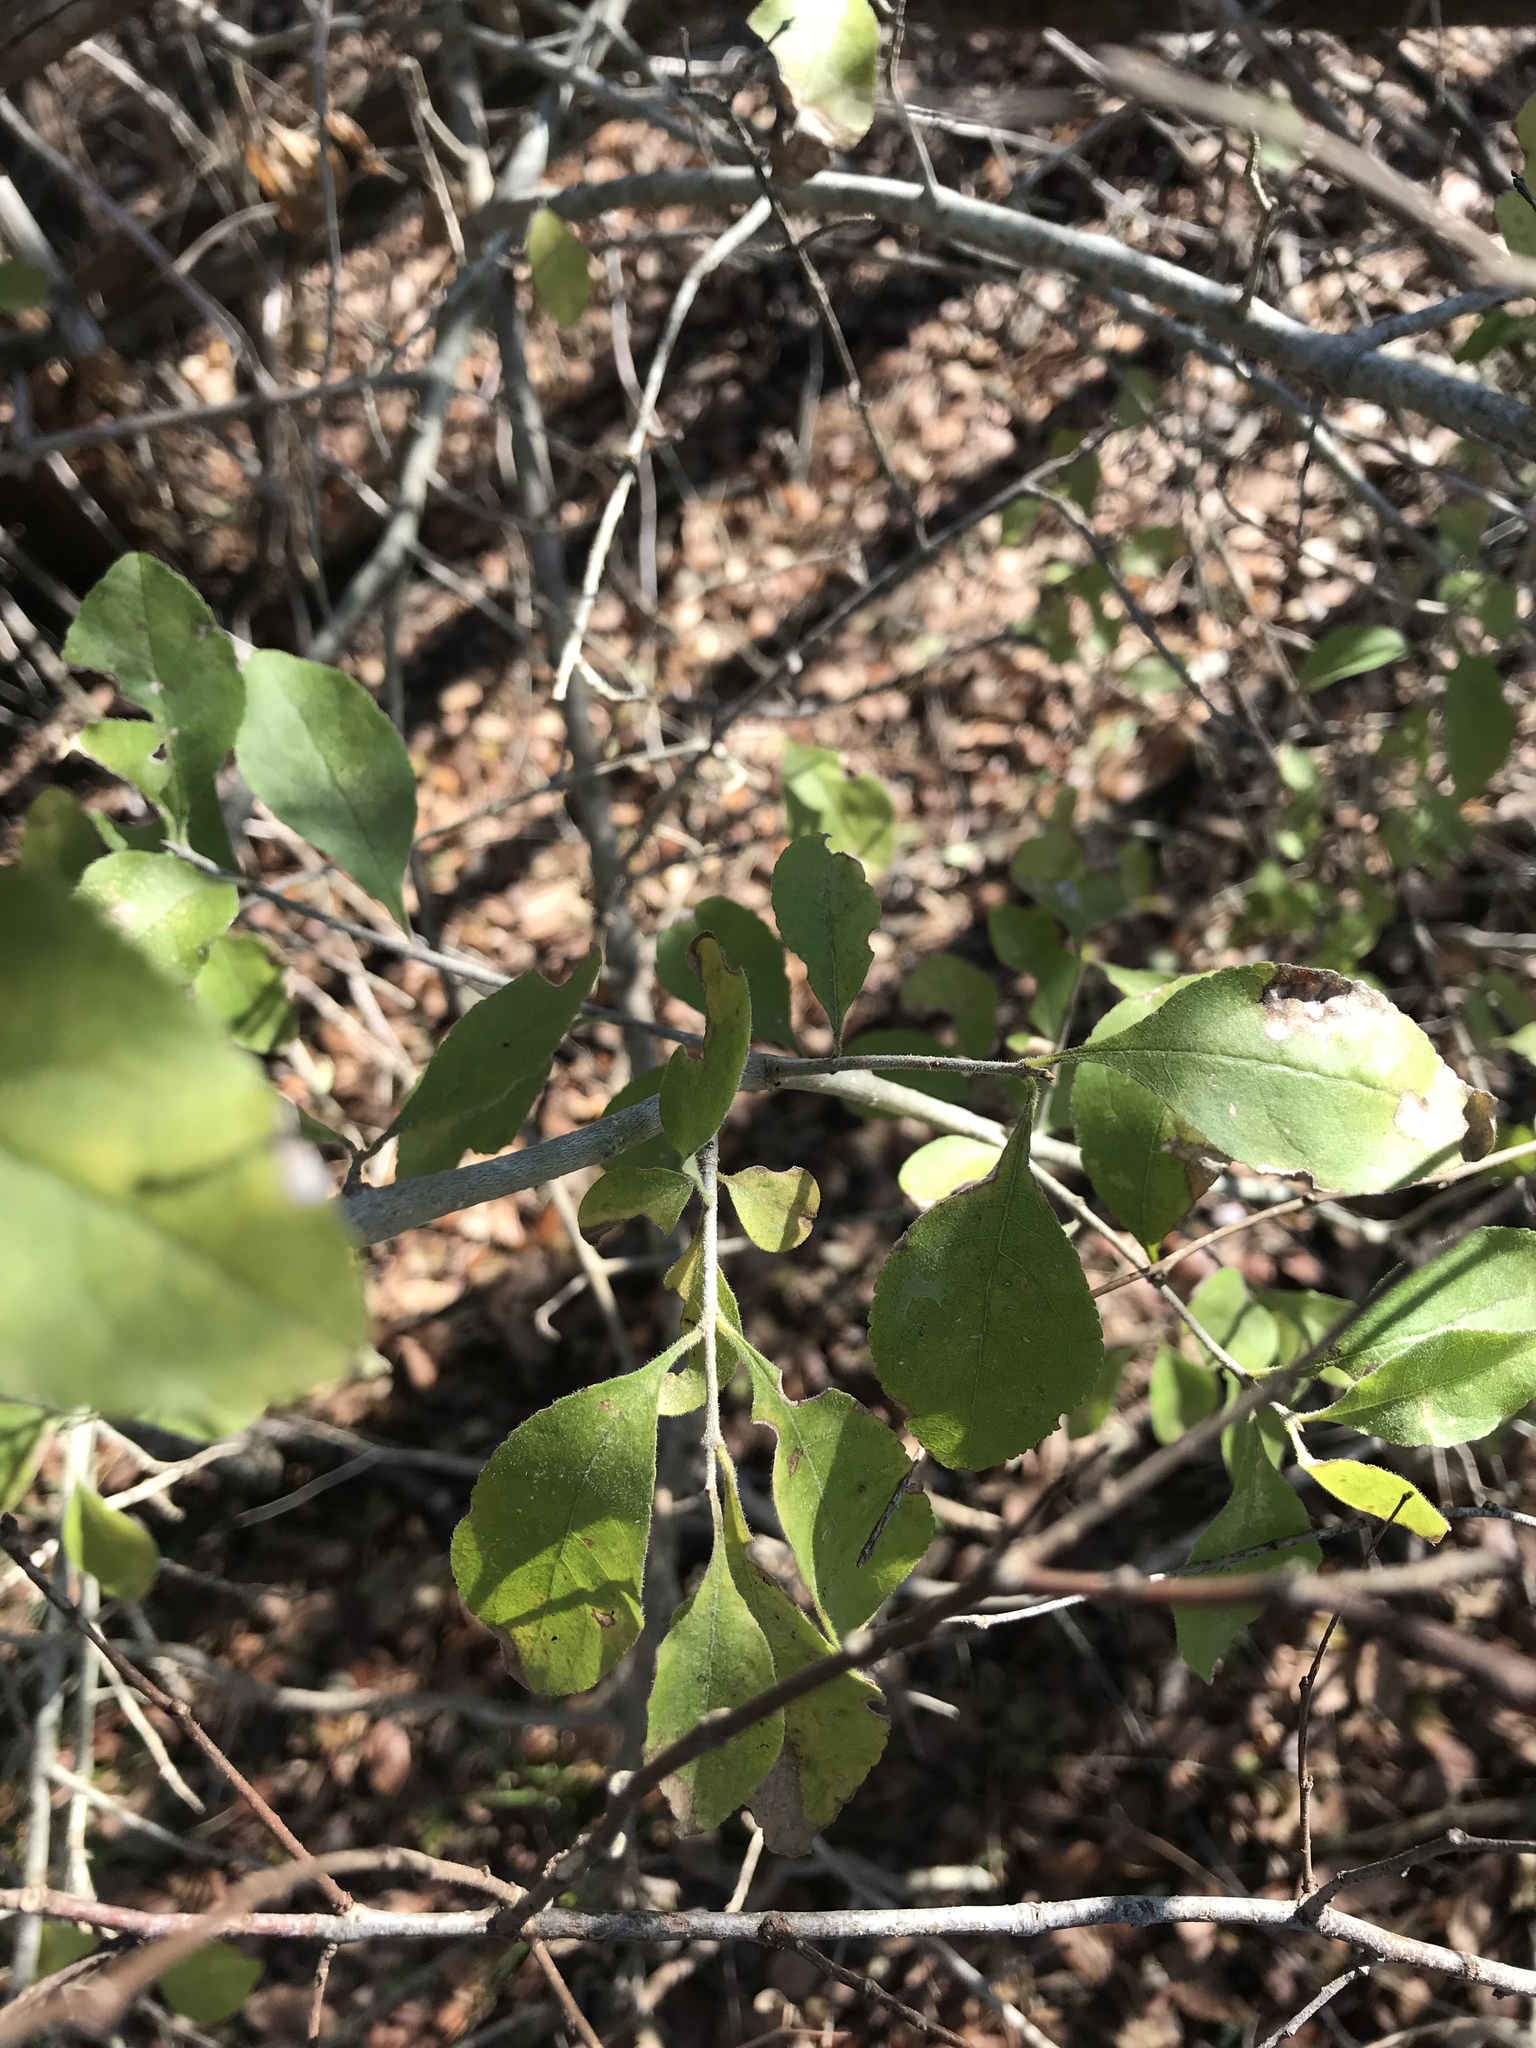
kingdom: Plantae
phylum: Tracheophyta
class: Magnoliopsida
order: Lamiales
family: Oleaceae
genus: Forestiera
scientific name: Forestiera pubescens
